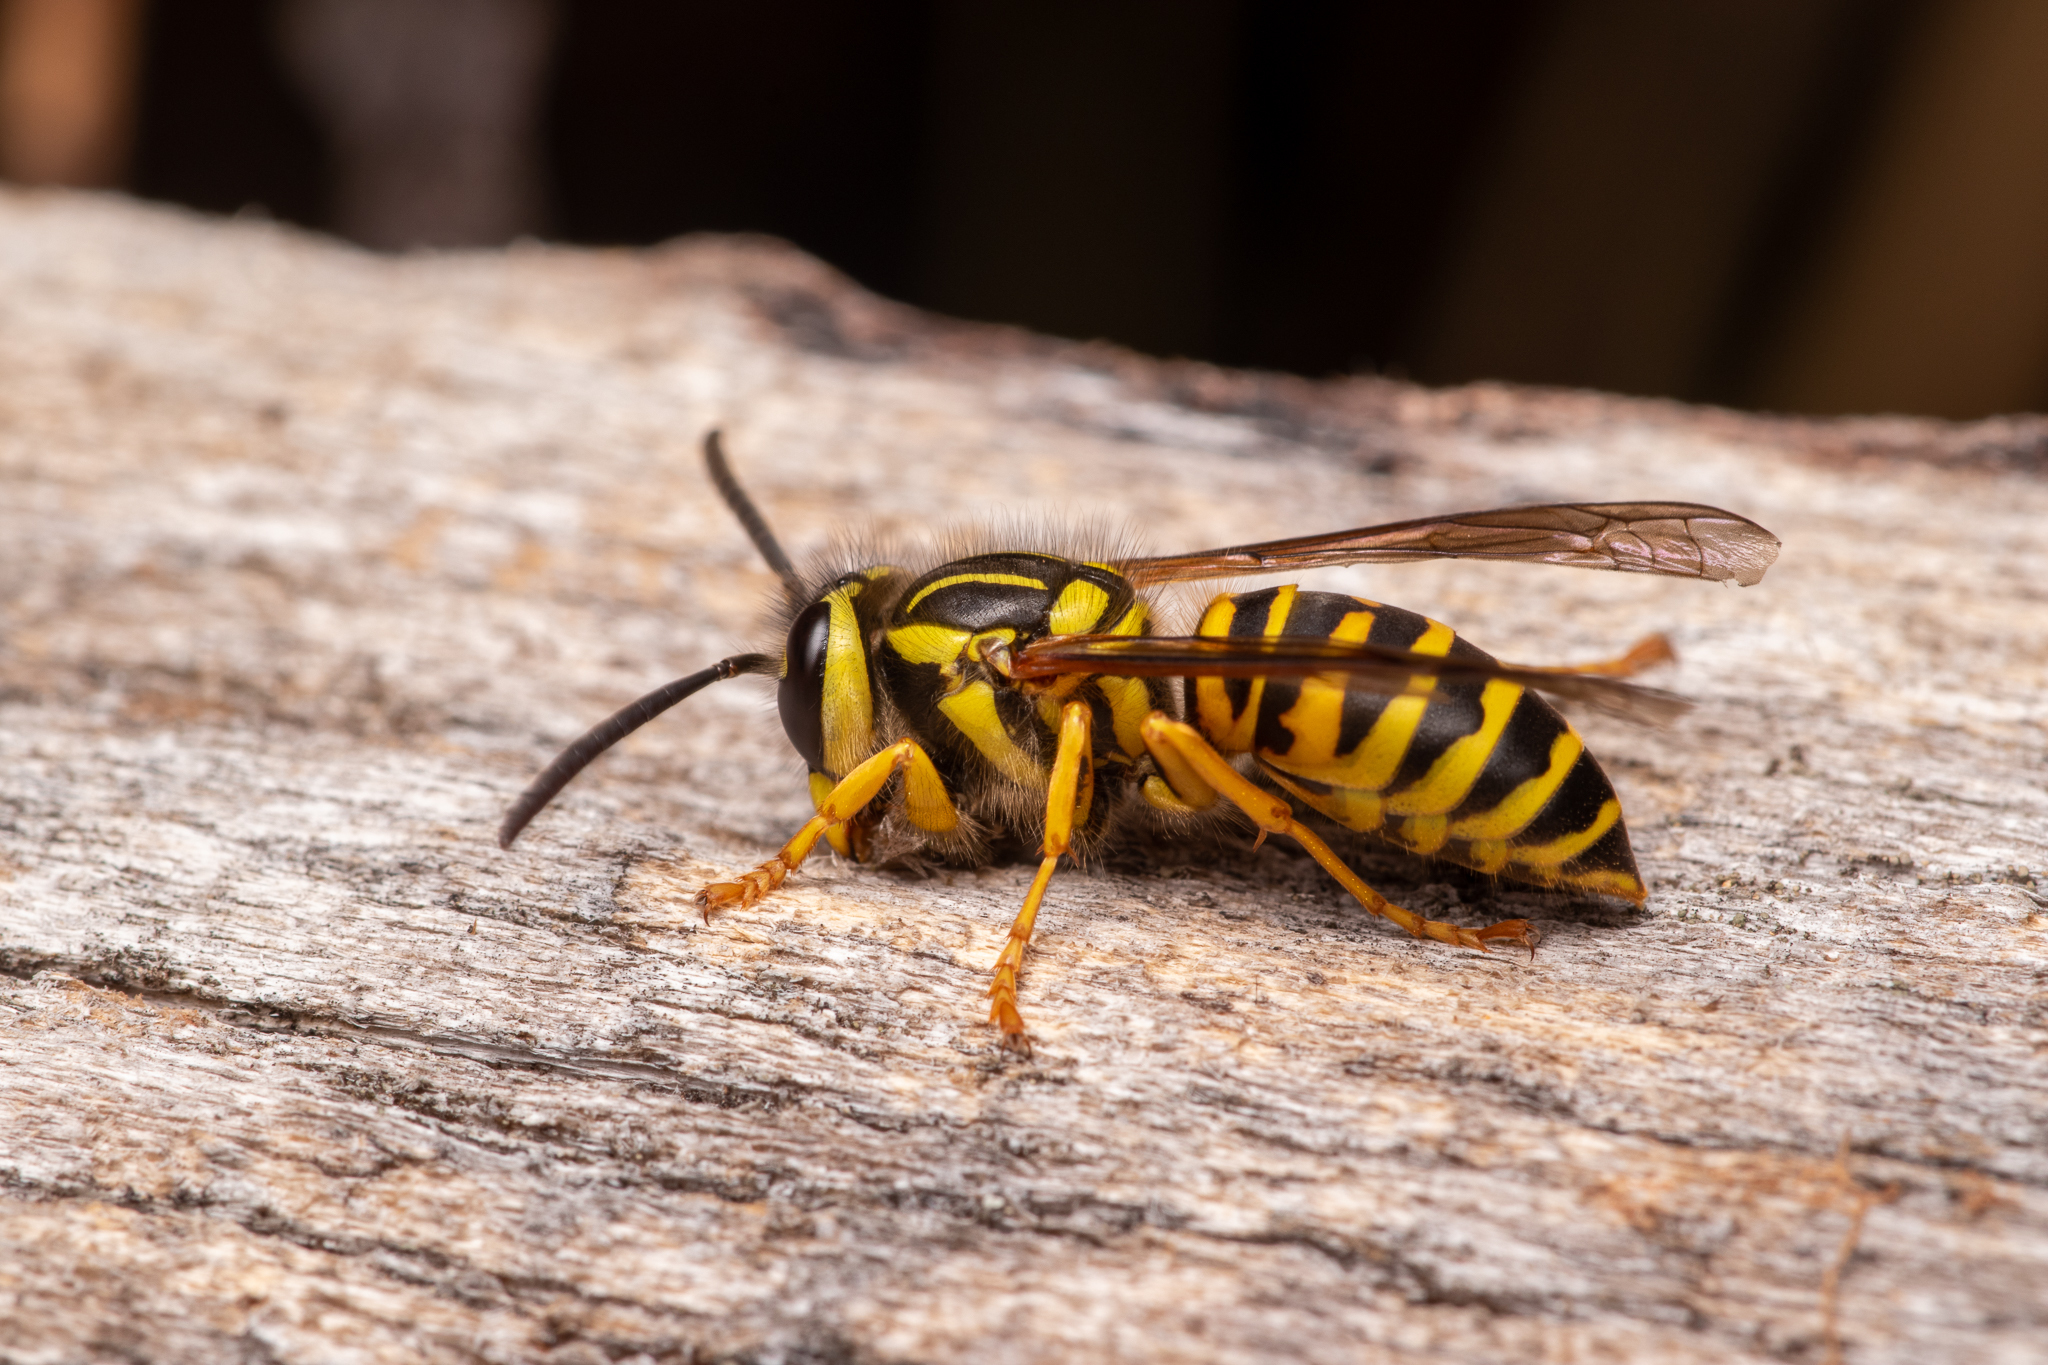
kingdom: Animalia
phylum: Arthropoda
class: Insecta
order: Hymenoptera
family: Vespidae
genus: Vespula
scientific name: Vespula squamosa
